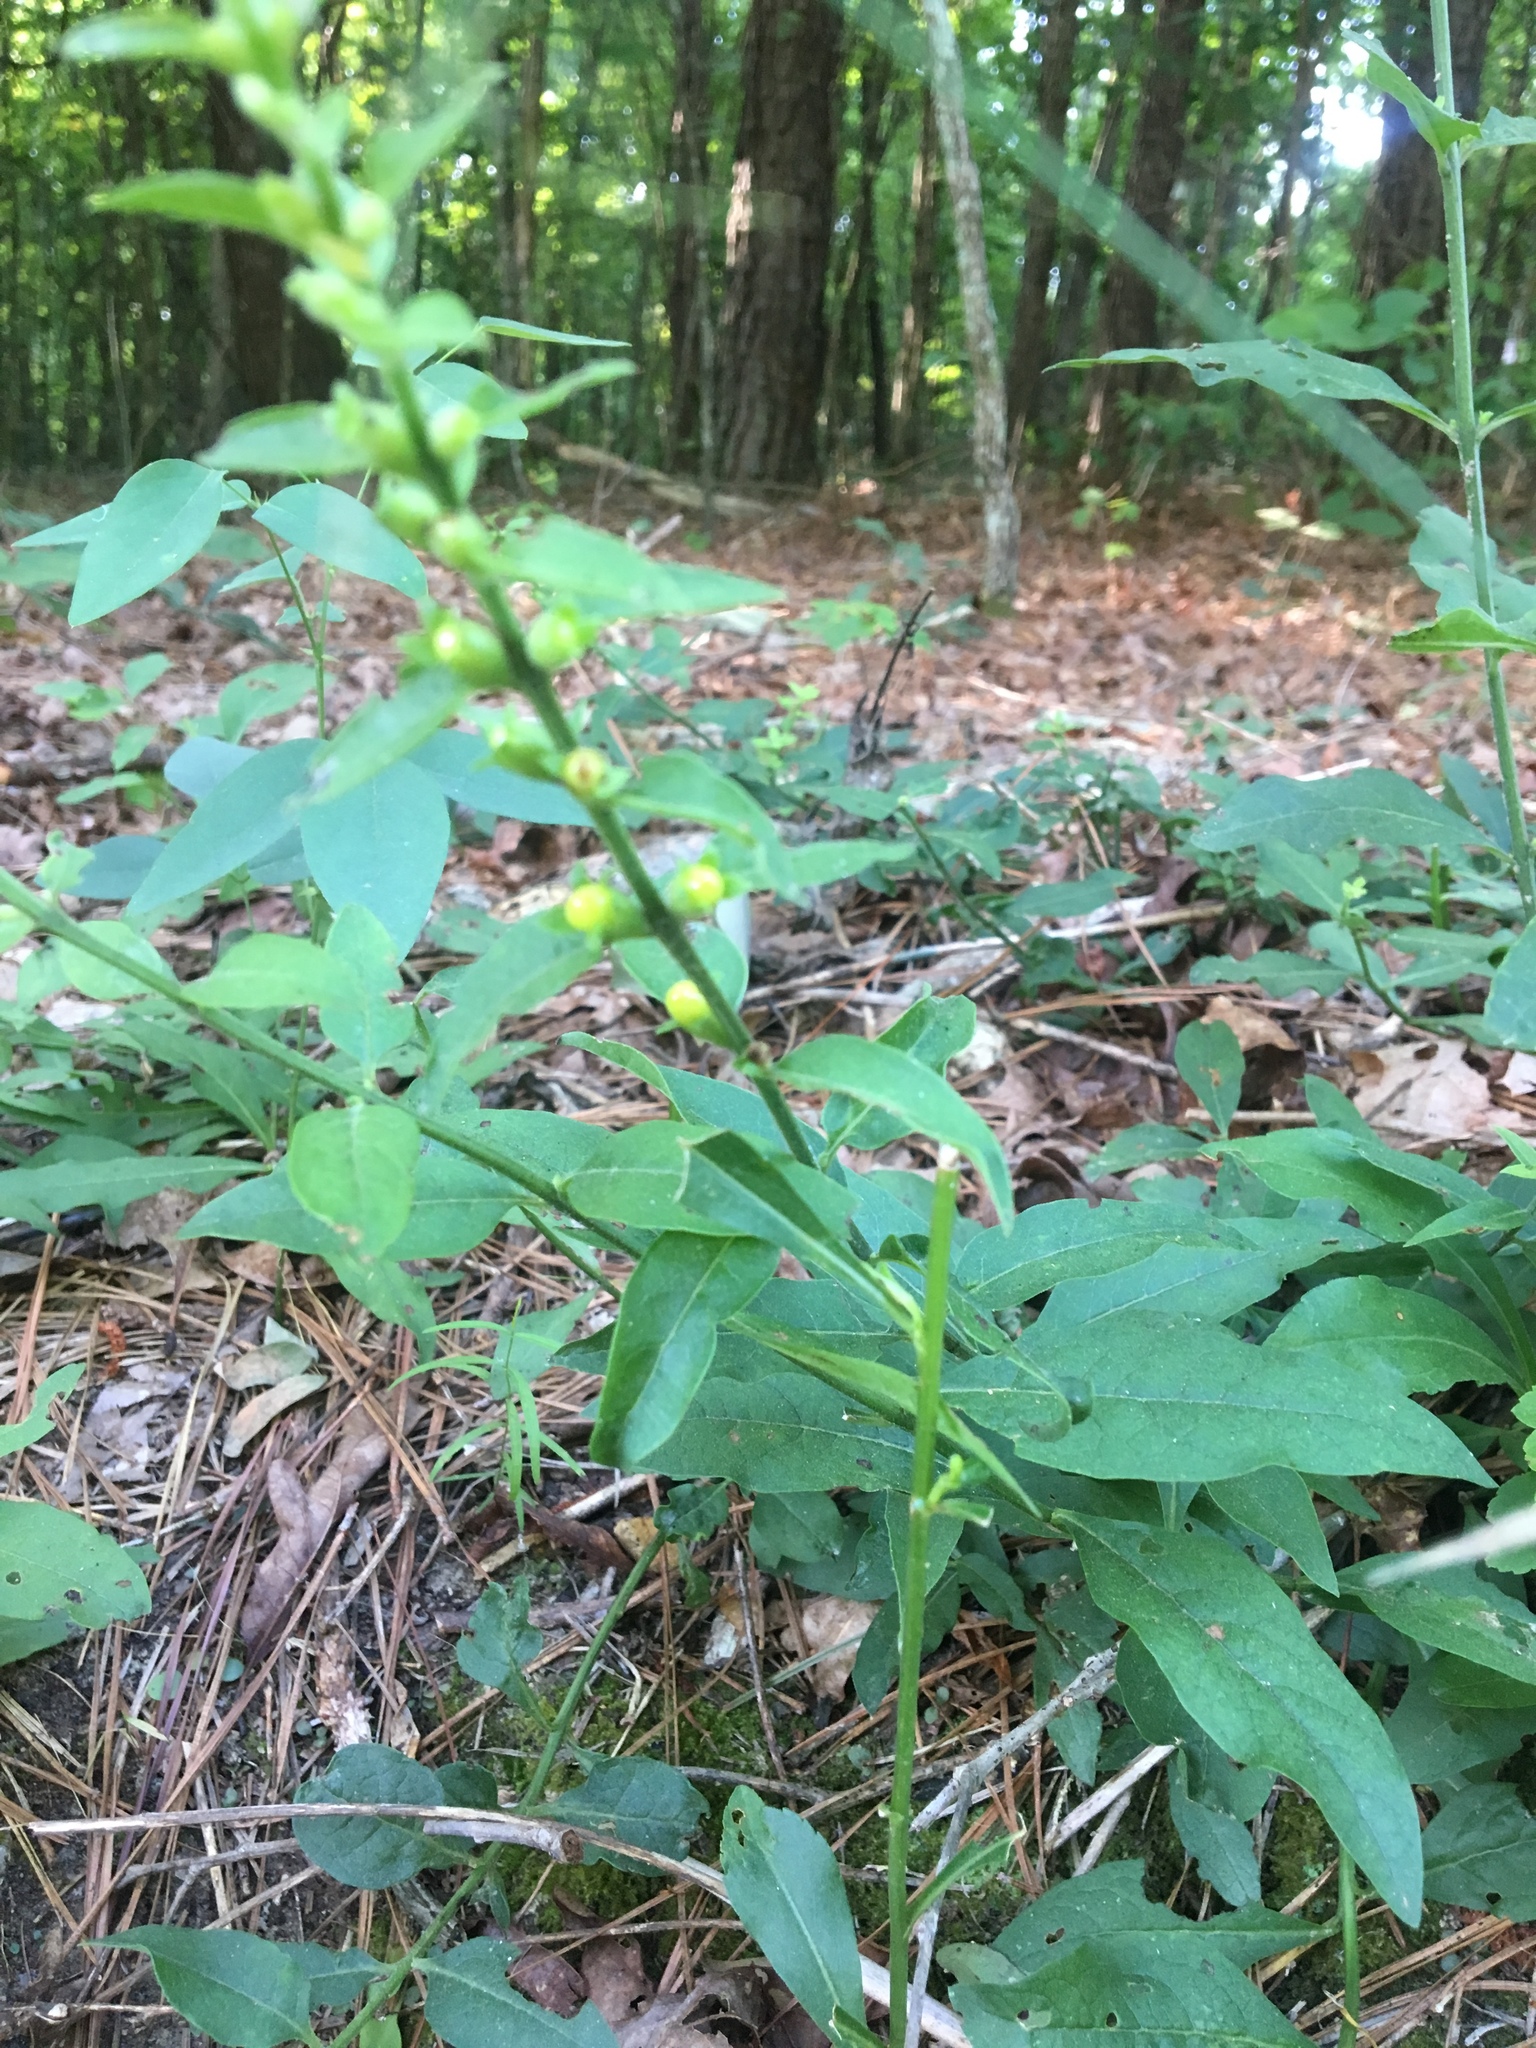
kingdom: Plantae
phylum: Tracheophyta
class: Magnoliopsida
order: Lamiales
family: Orobanchaceae
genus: Aureolaria
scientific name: Aureolaria virginica
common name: Downy false foxglove
